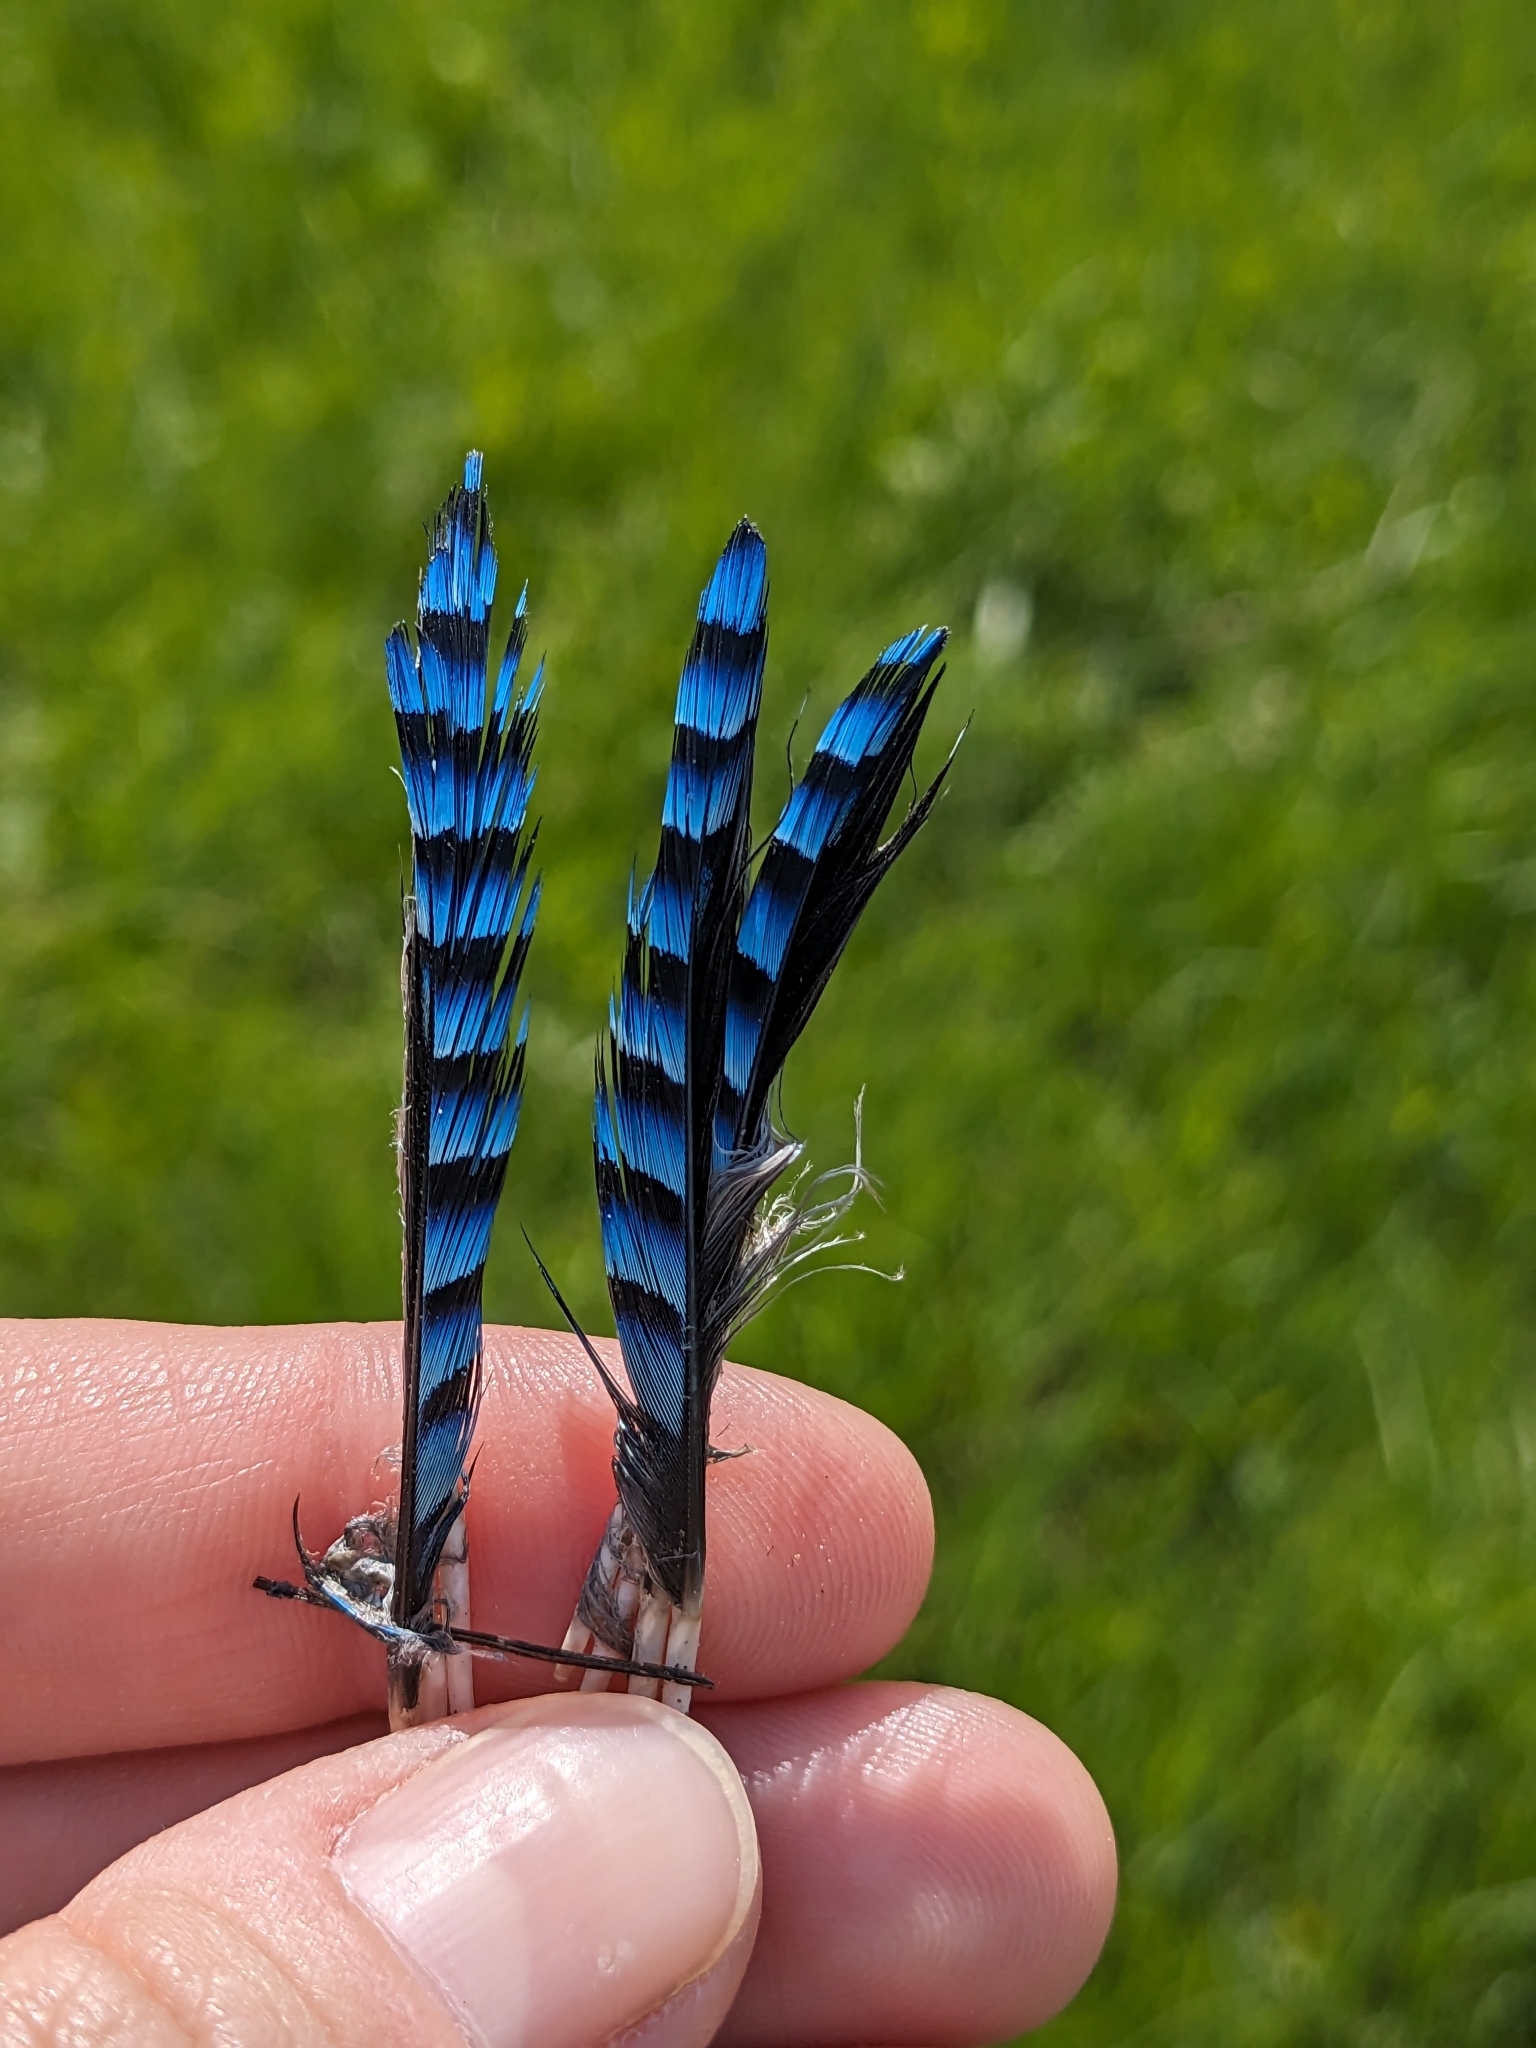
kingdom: Animalia
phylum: Chordata
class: Aves
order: Passeriformes
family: Corvidae
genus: Garrulus
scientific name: Garrulus glandarius
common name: Eurasian jay
